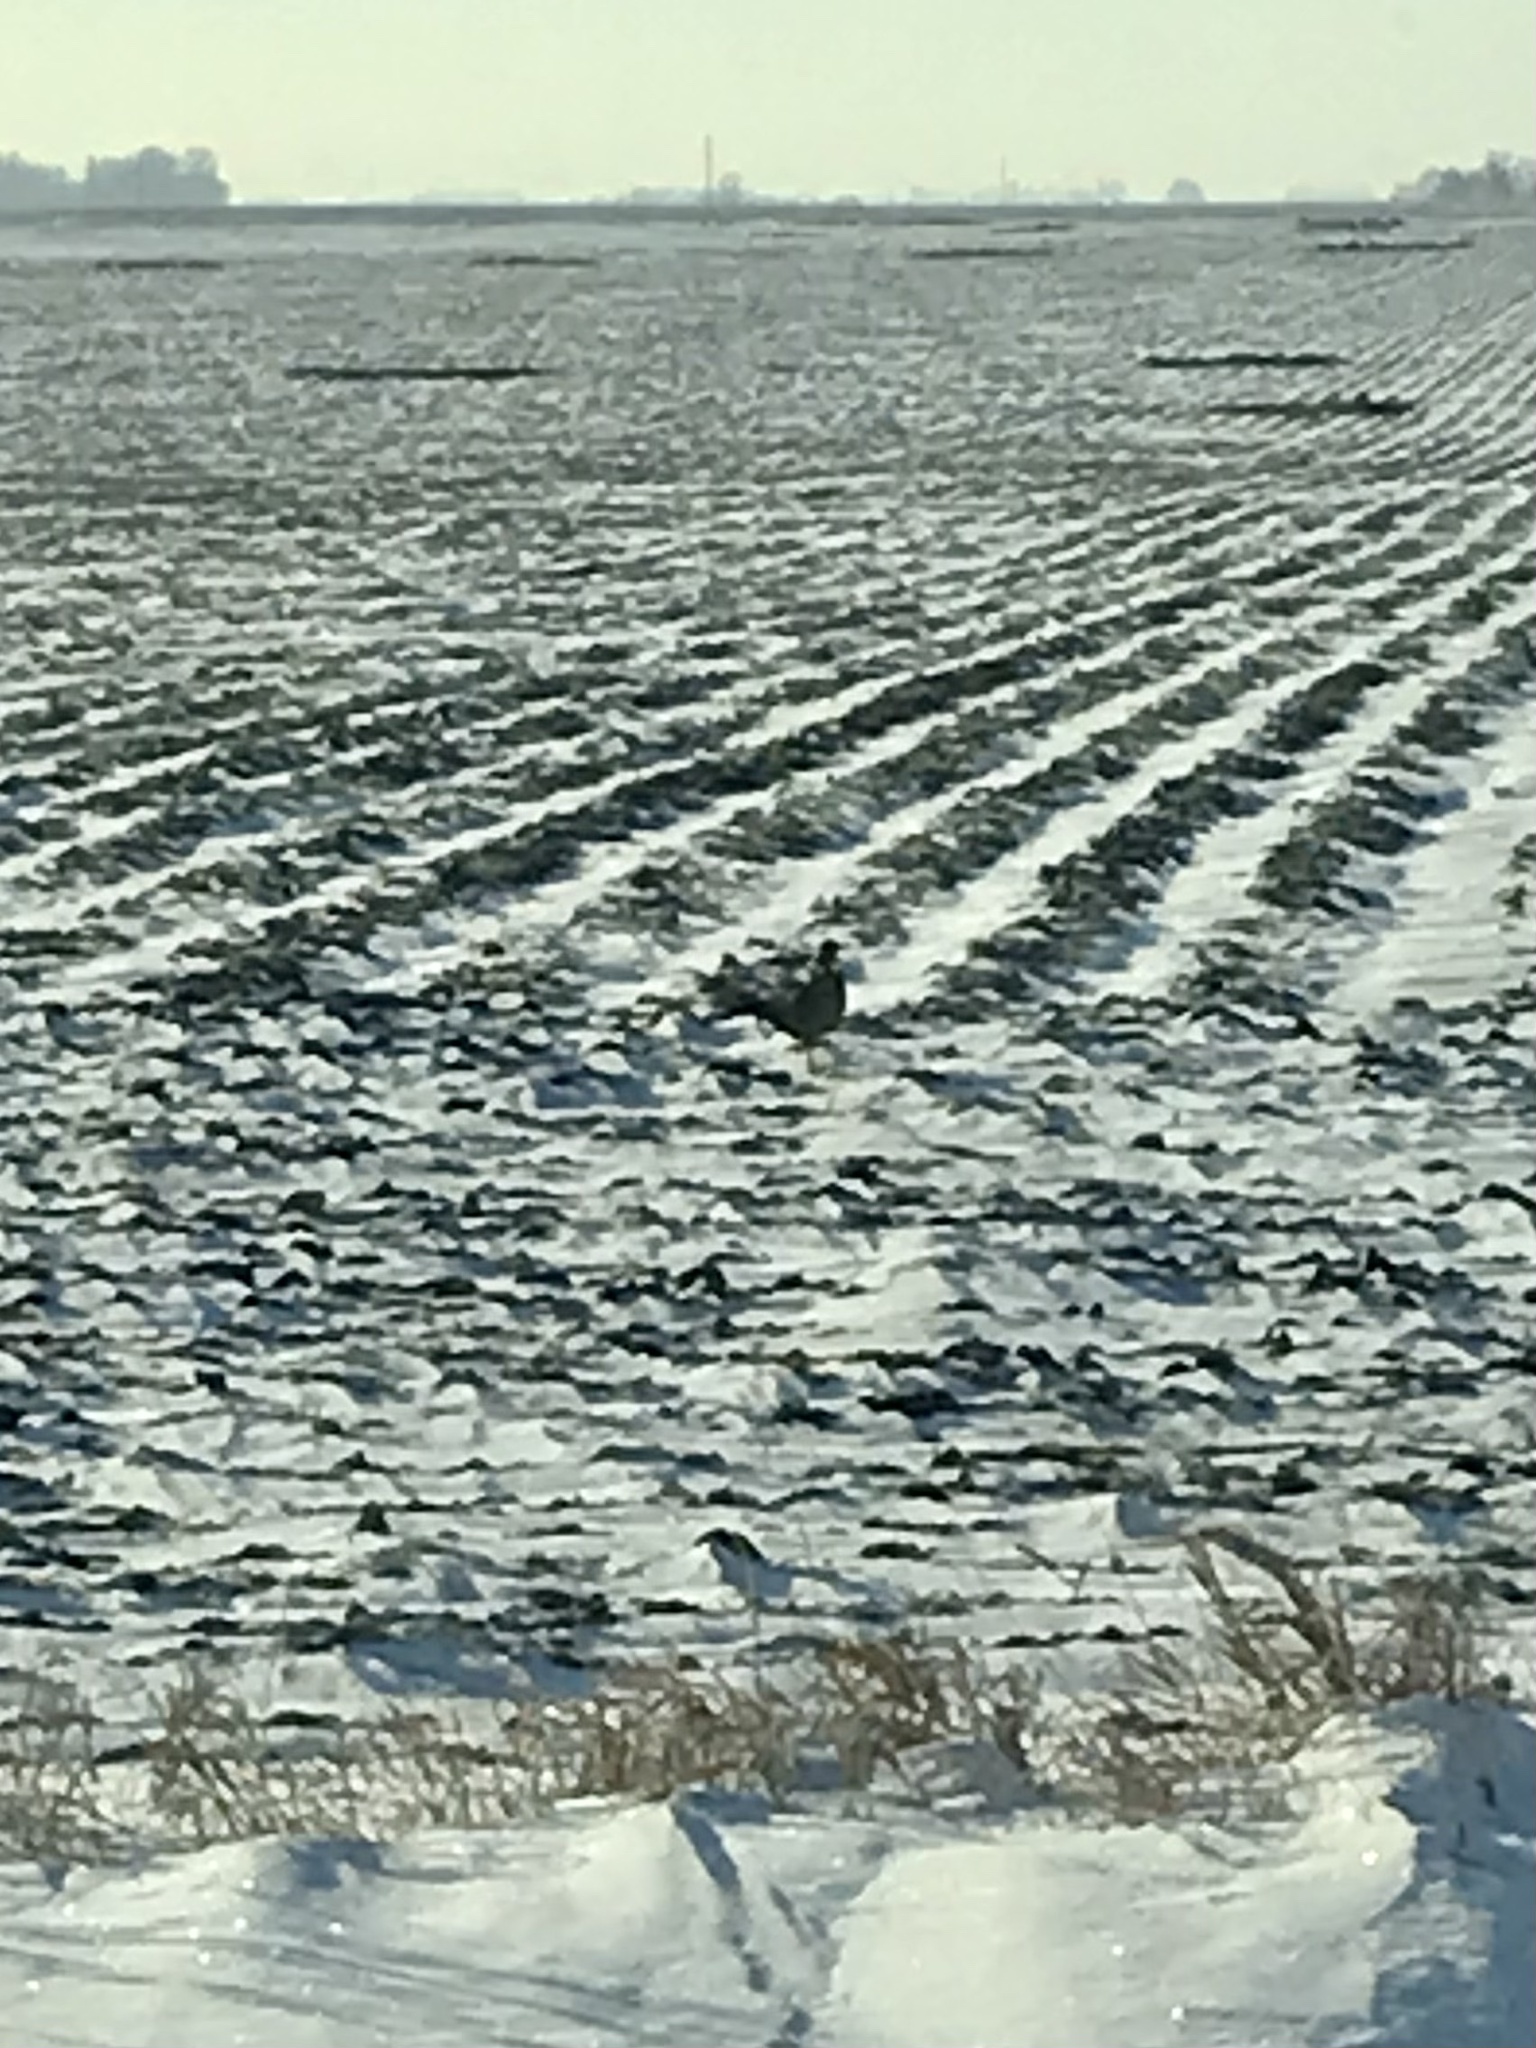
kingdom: Animalia
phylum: Chordata
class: Aves
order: Galliformes
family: Phasianidae
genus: Phasianus
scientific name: Phasianus colchicus
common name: Common pheasant
